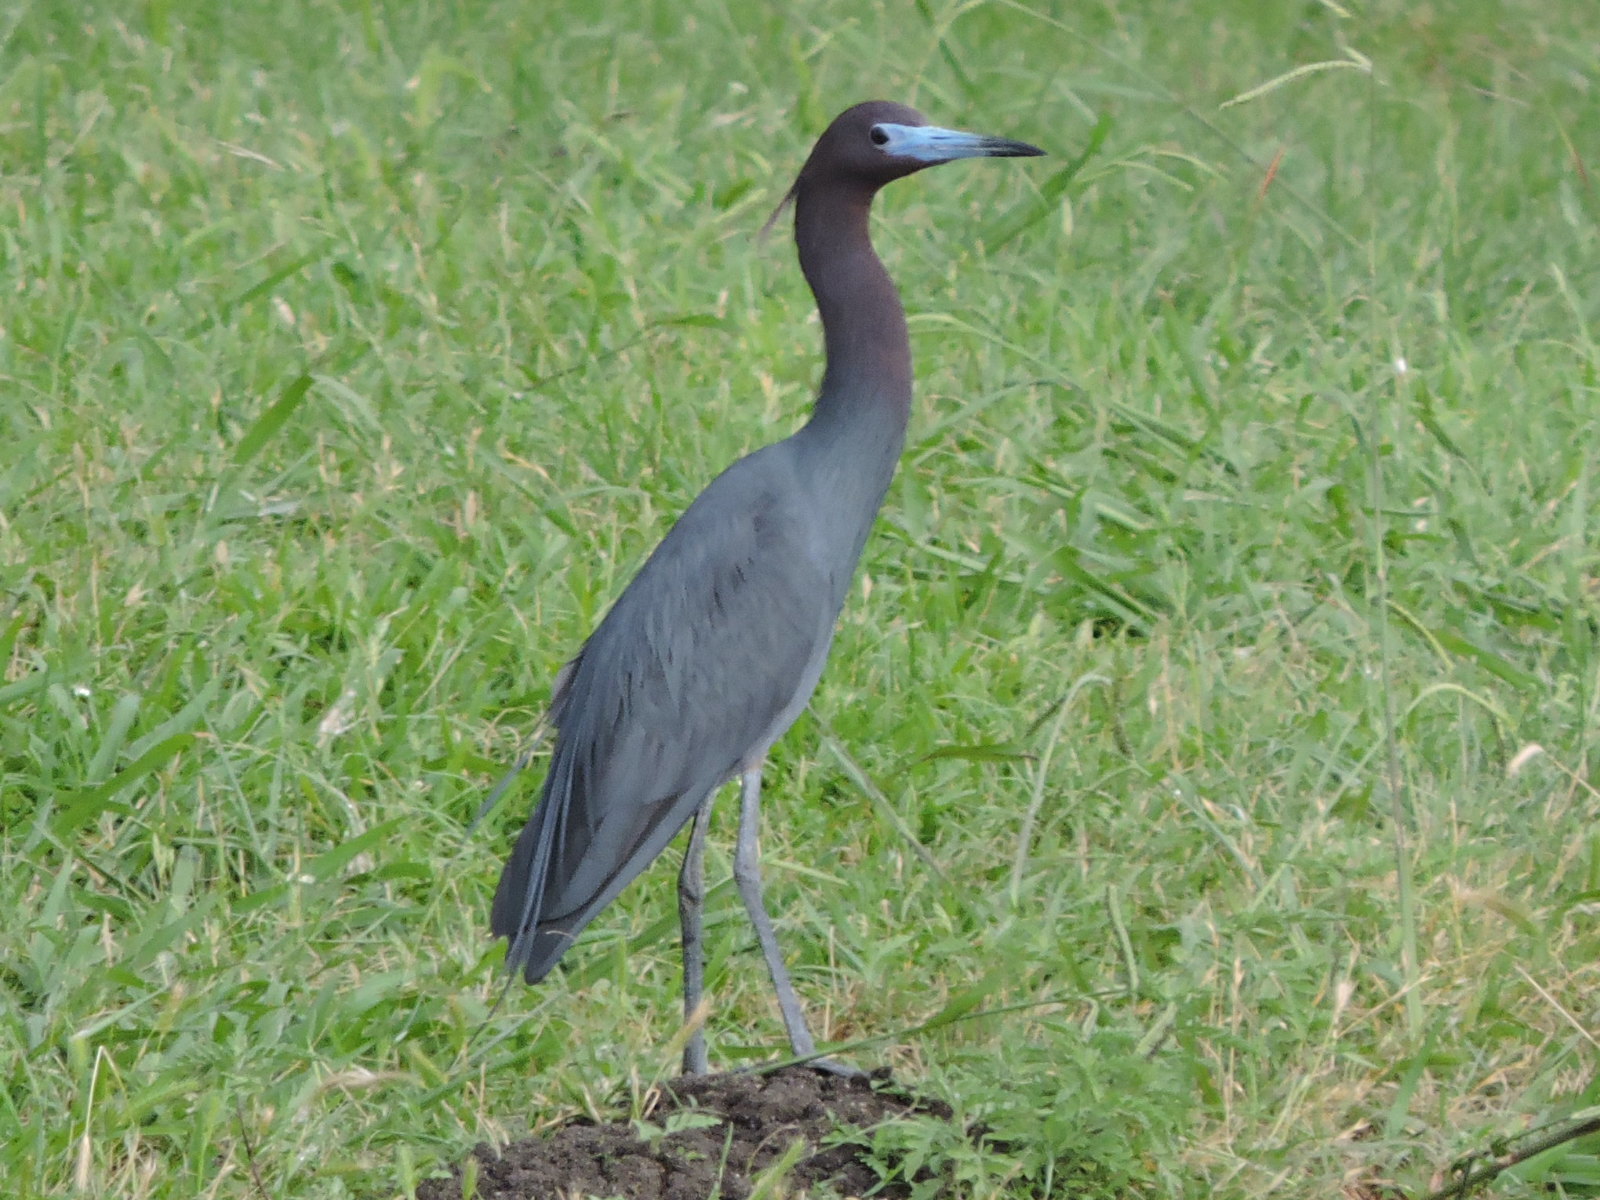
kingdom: Animalia
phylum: Chordata
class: Aves
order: Pelecaniformes
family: Ardeidae
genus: Egretta
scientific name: Egretta caerulea
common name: Little blue heron
